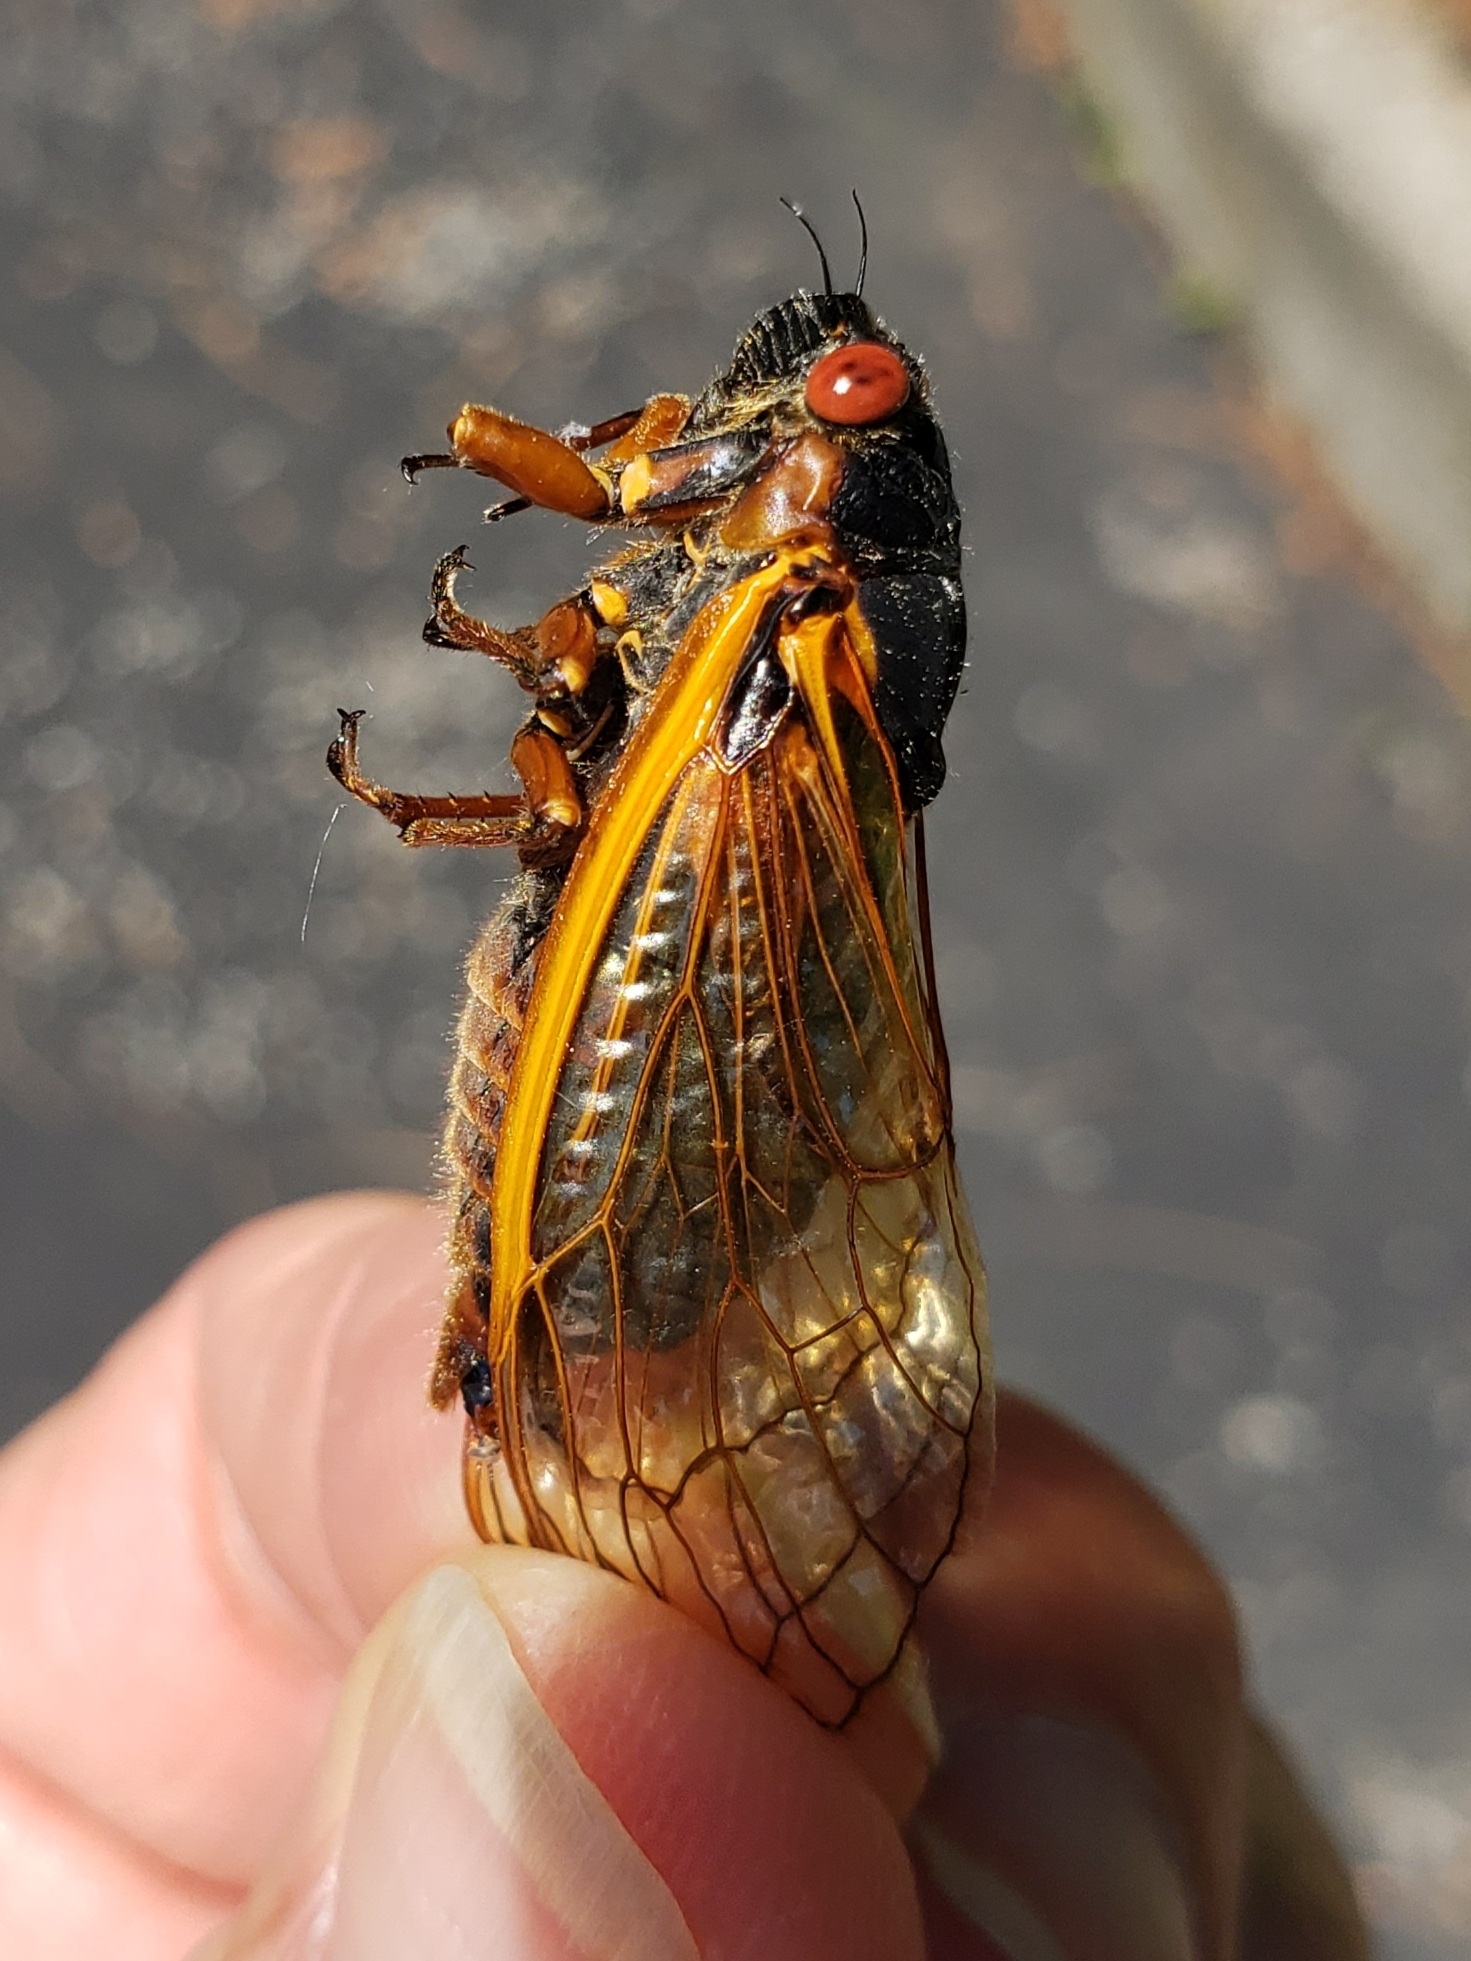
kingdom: Animalia
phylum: Arthropoda
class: Insecta
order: Hemiptera
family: Cicadidae
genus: Magicicada
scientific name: Magicicada septendecim
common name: Periodical cicada
